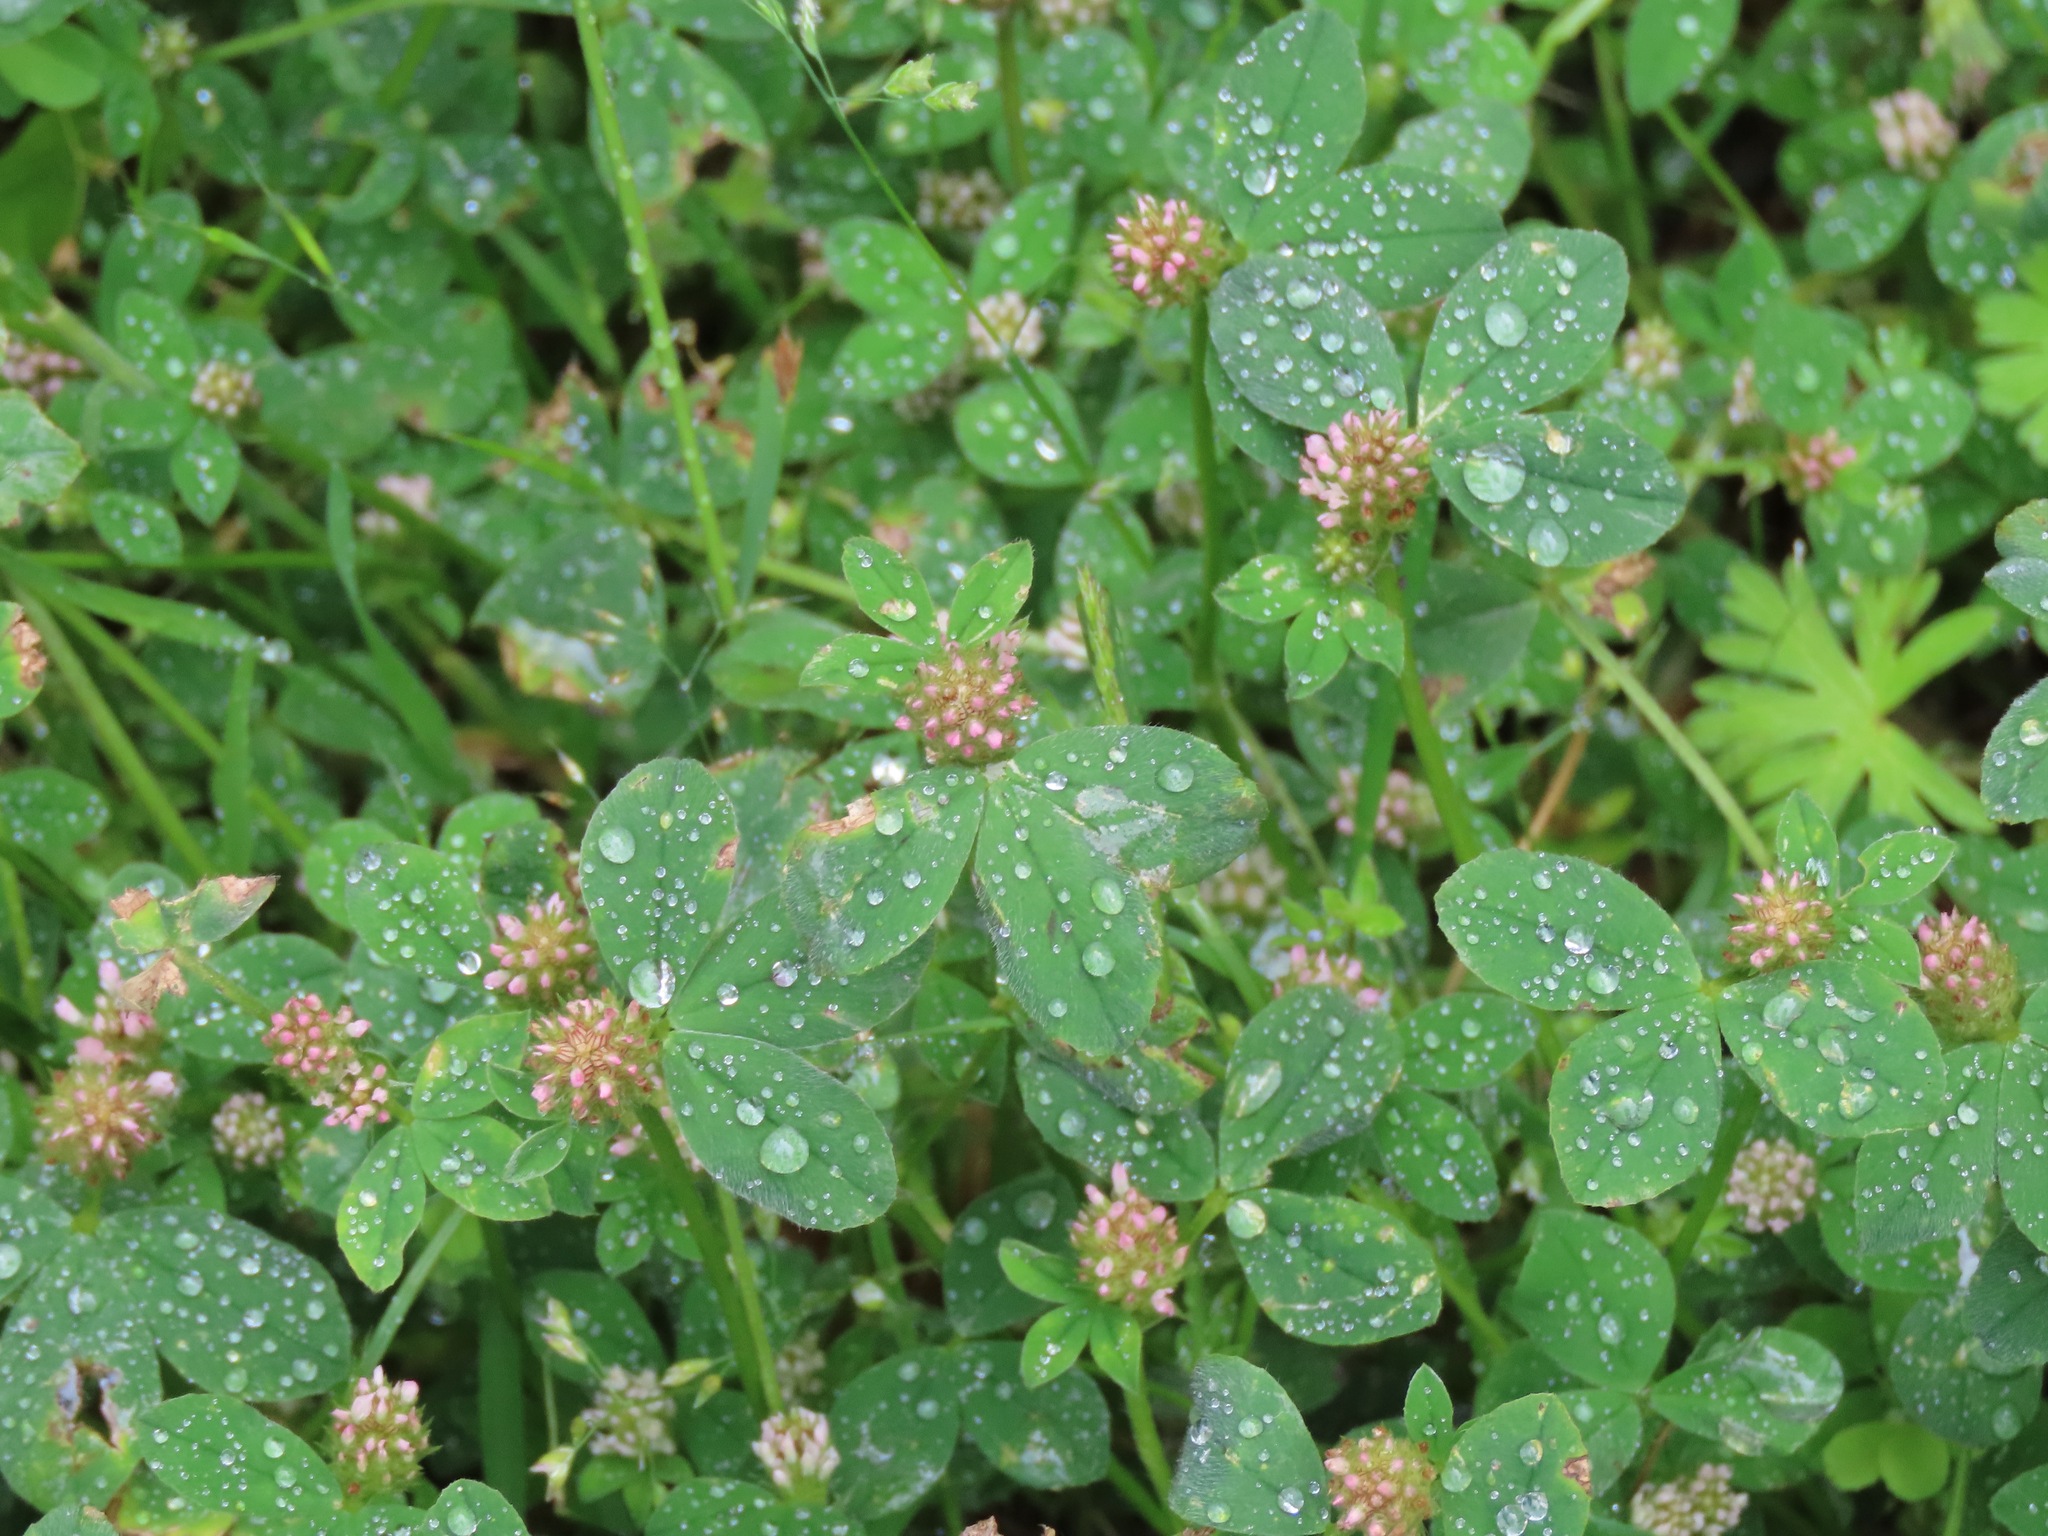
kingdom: Plantae
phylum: Tracheophyta
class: Magnoliopsida
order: Fabales
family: Fabaceae
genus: Trifolium
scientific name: Trifolium striatum
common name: Knotted clover
